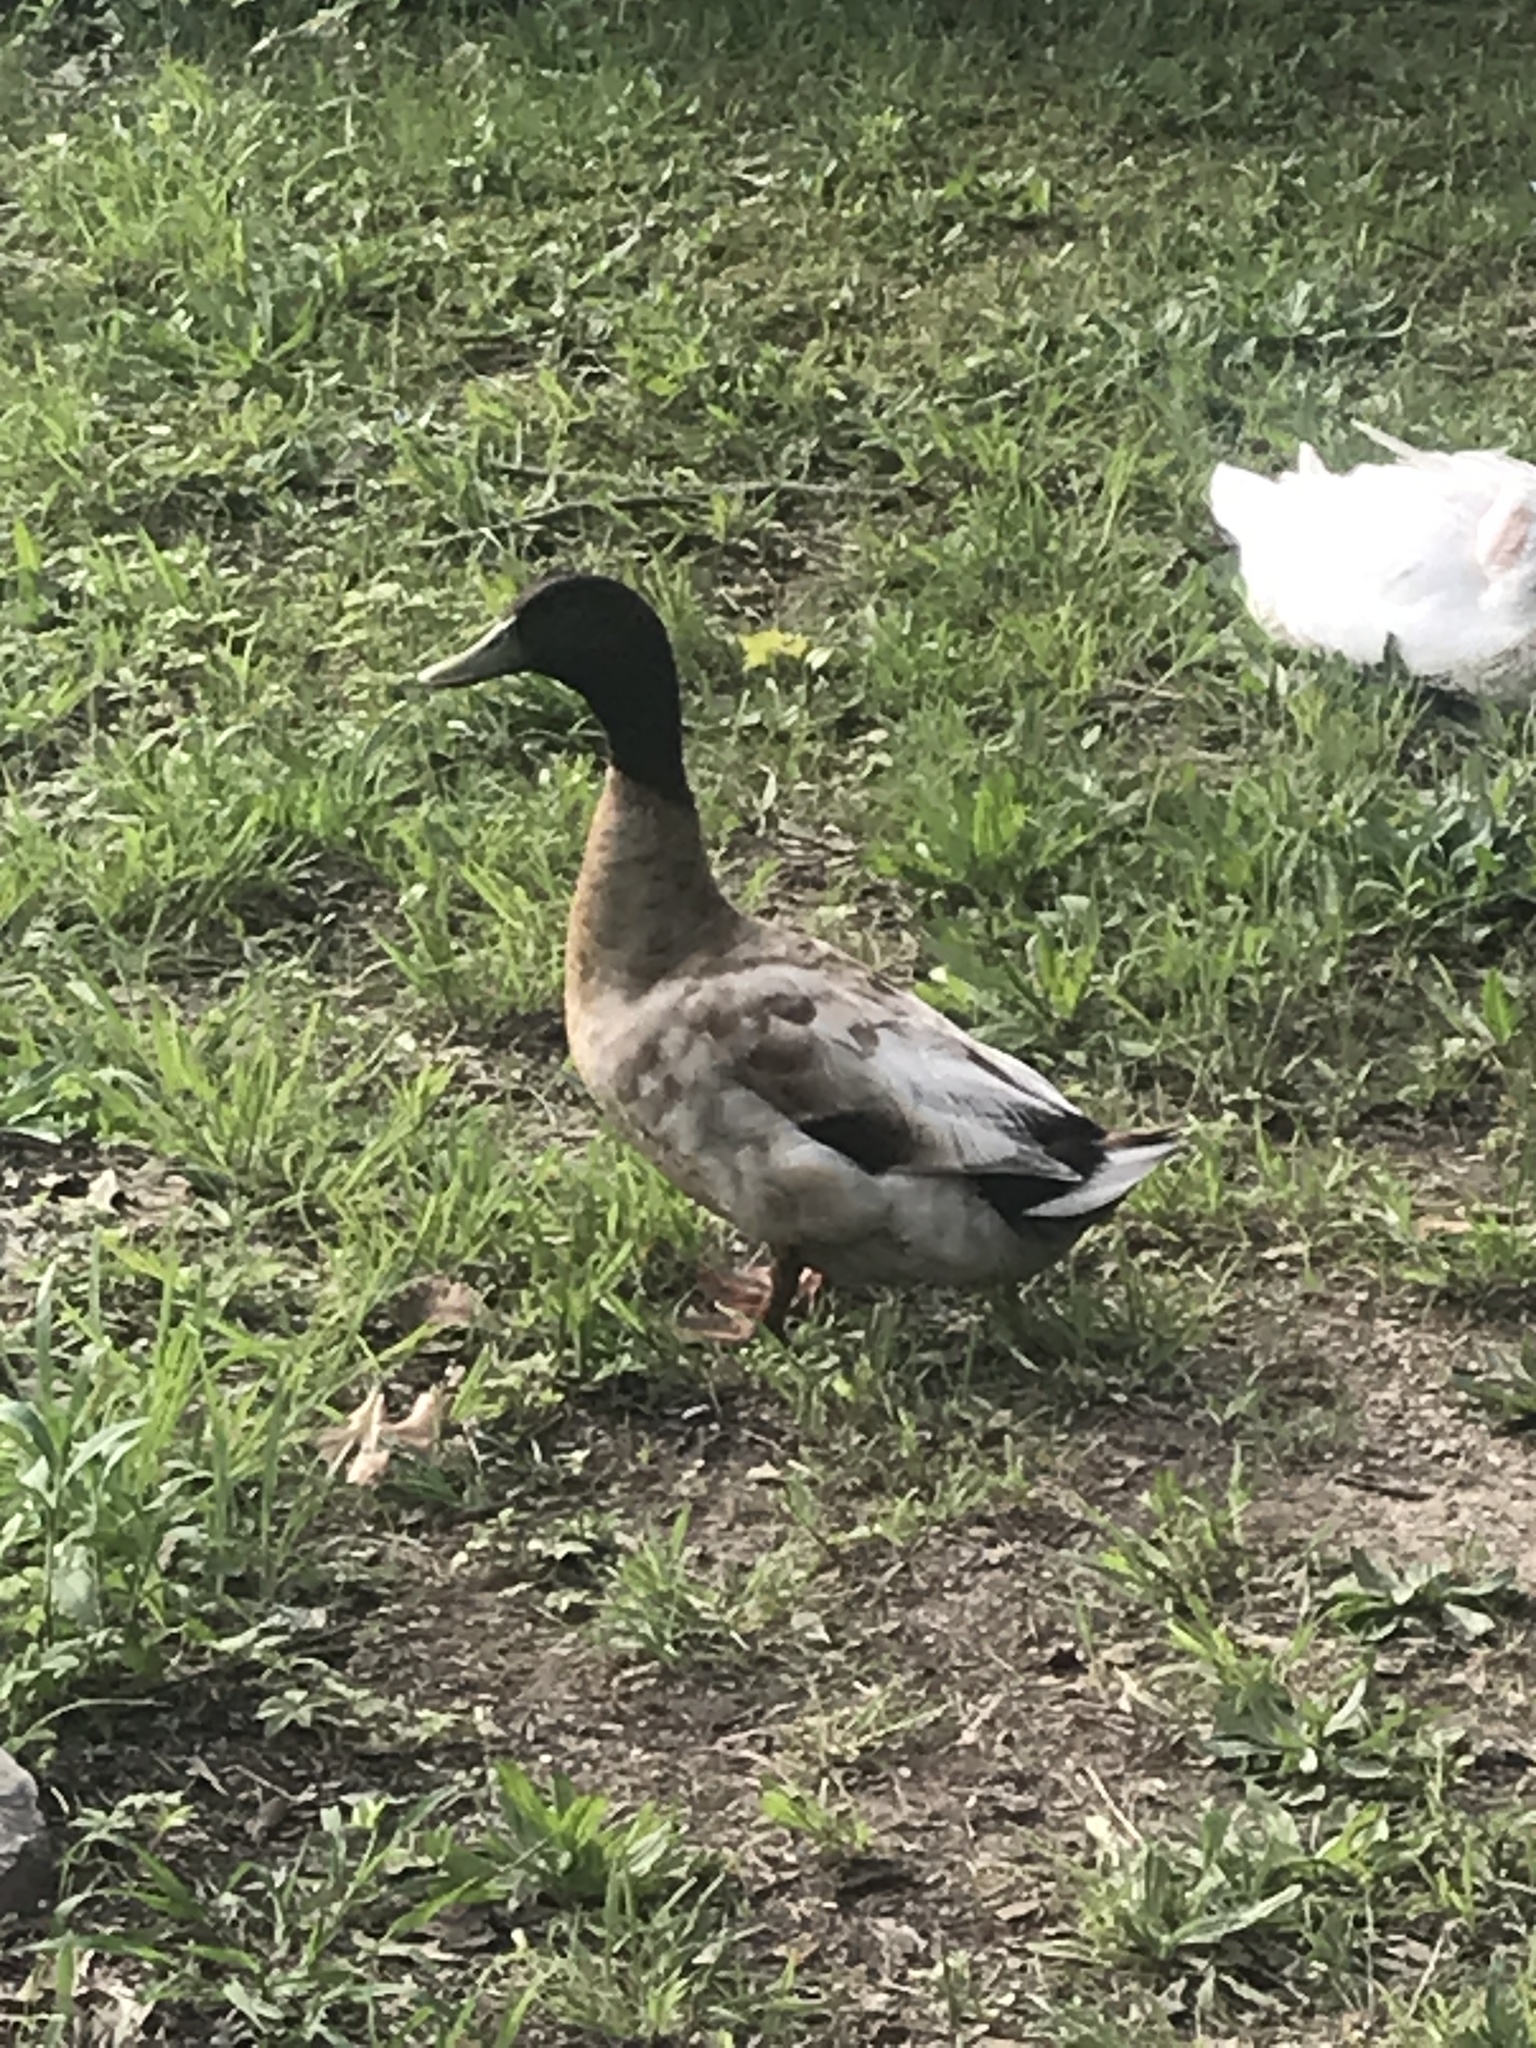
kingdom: Animalia
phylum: Chordata
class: Aves
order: Anseriformes
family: Anatidae
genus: Anas
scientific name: Anas platyrhynchos
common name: Mallard
